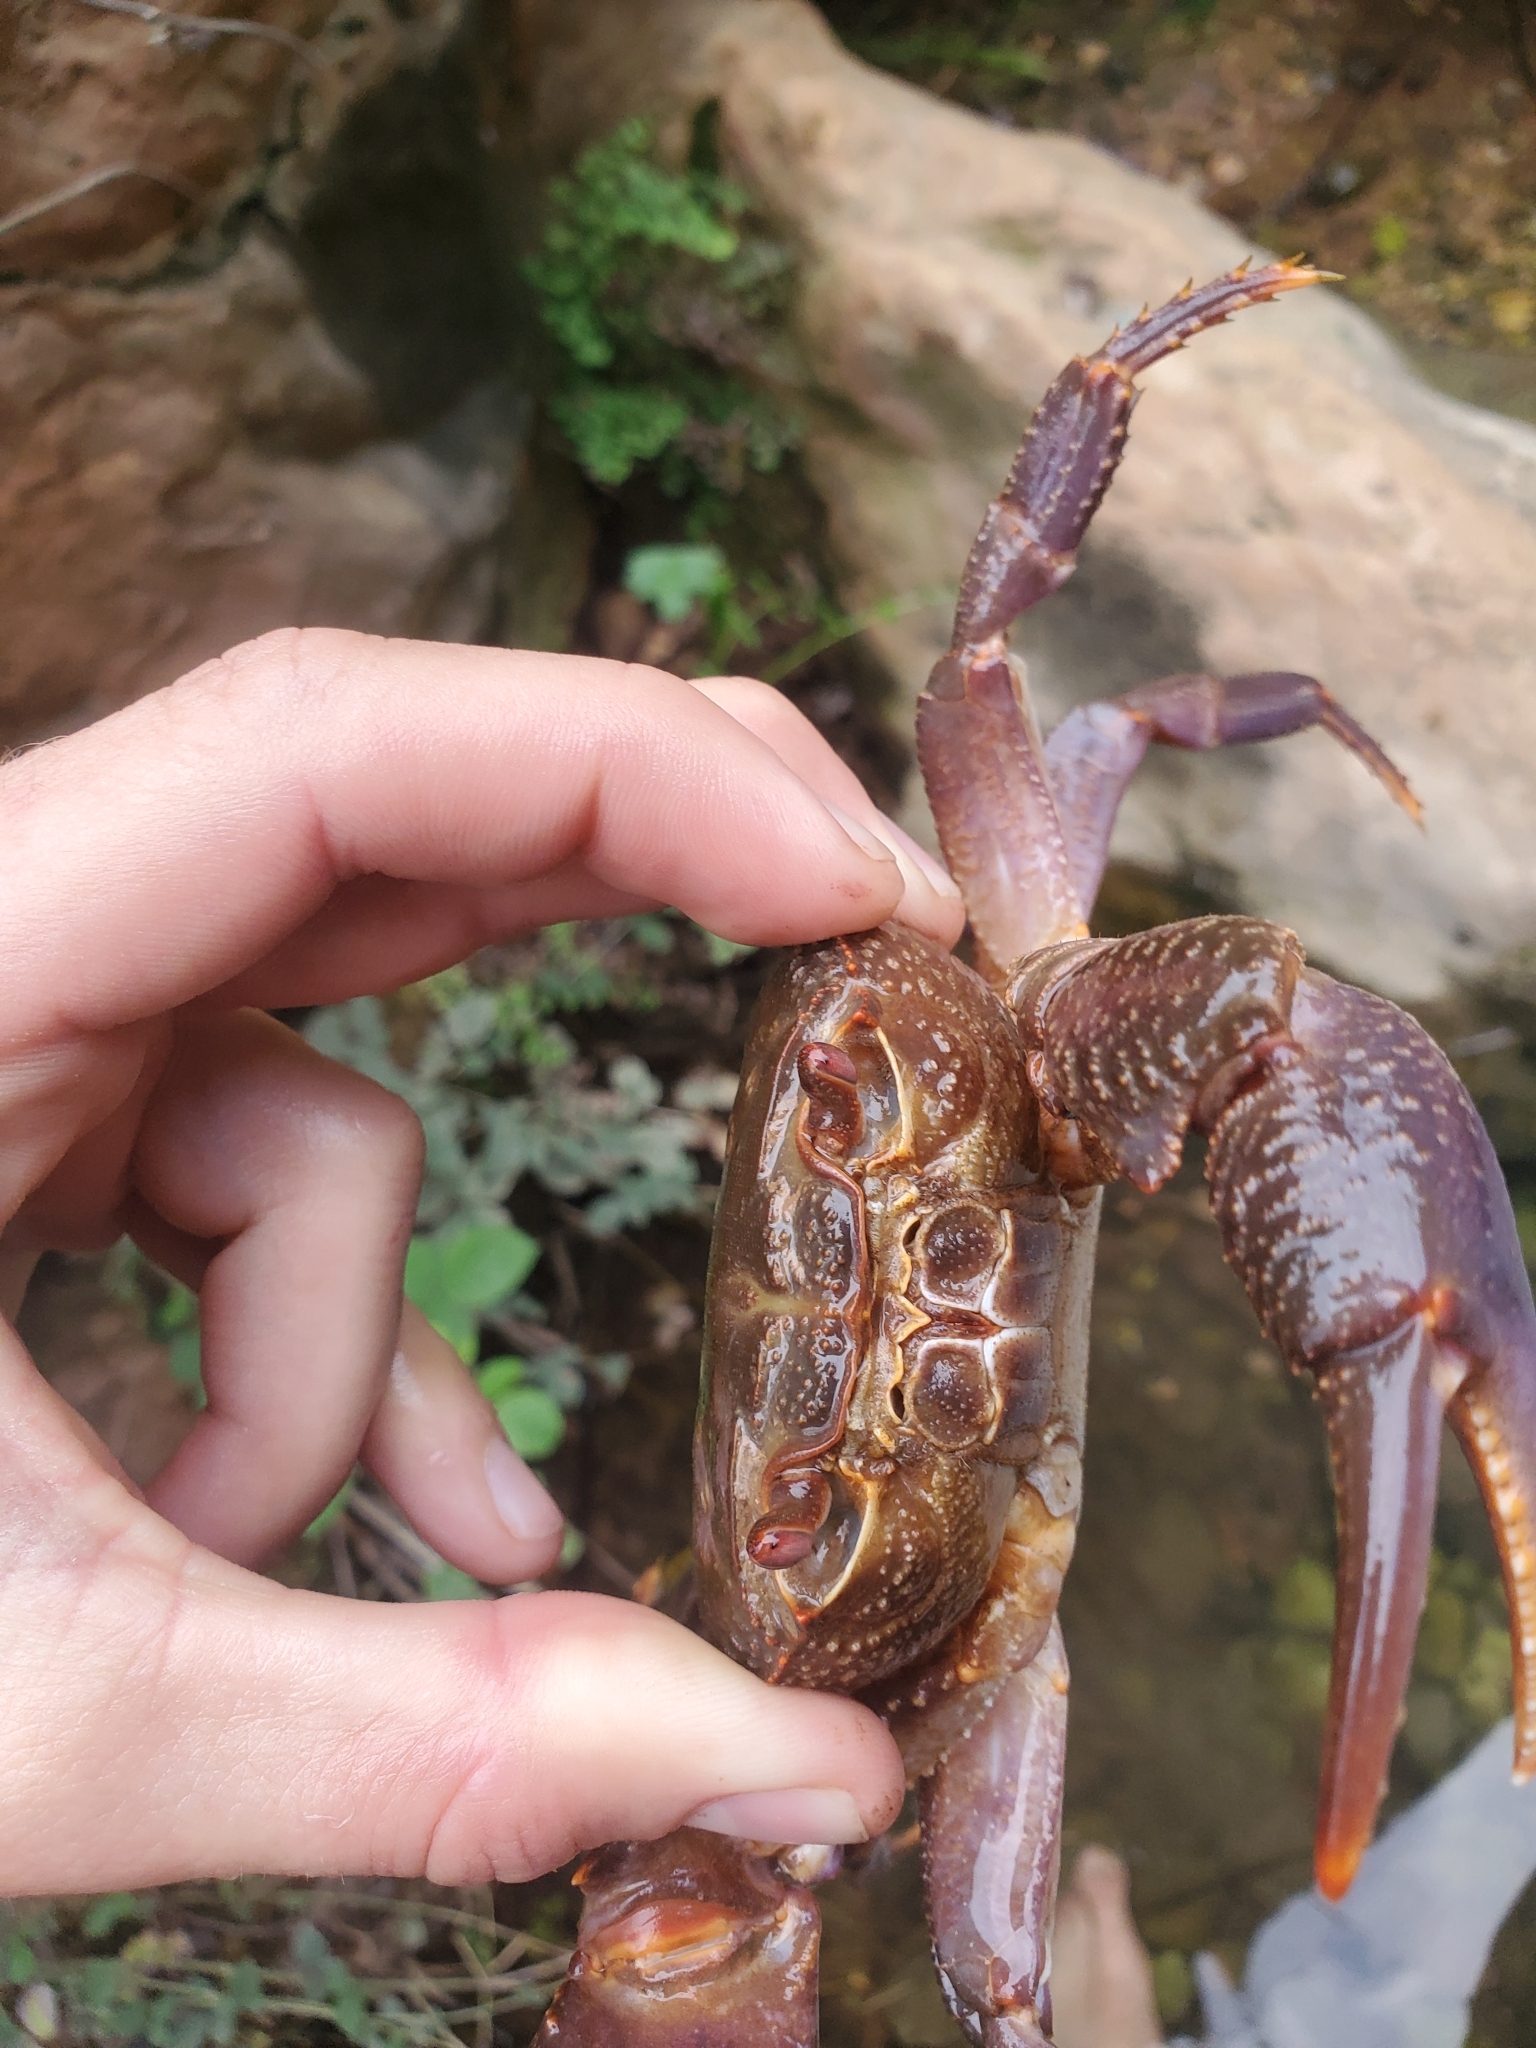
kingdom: Animalia
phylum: Arthropoda
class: Malacostraca
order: Decapoda
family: Potamidae
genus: Potamon
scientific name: Potamon potamios
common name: Aegean freshwater crab
